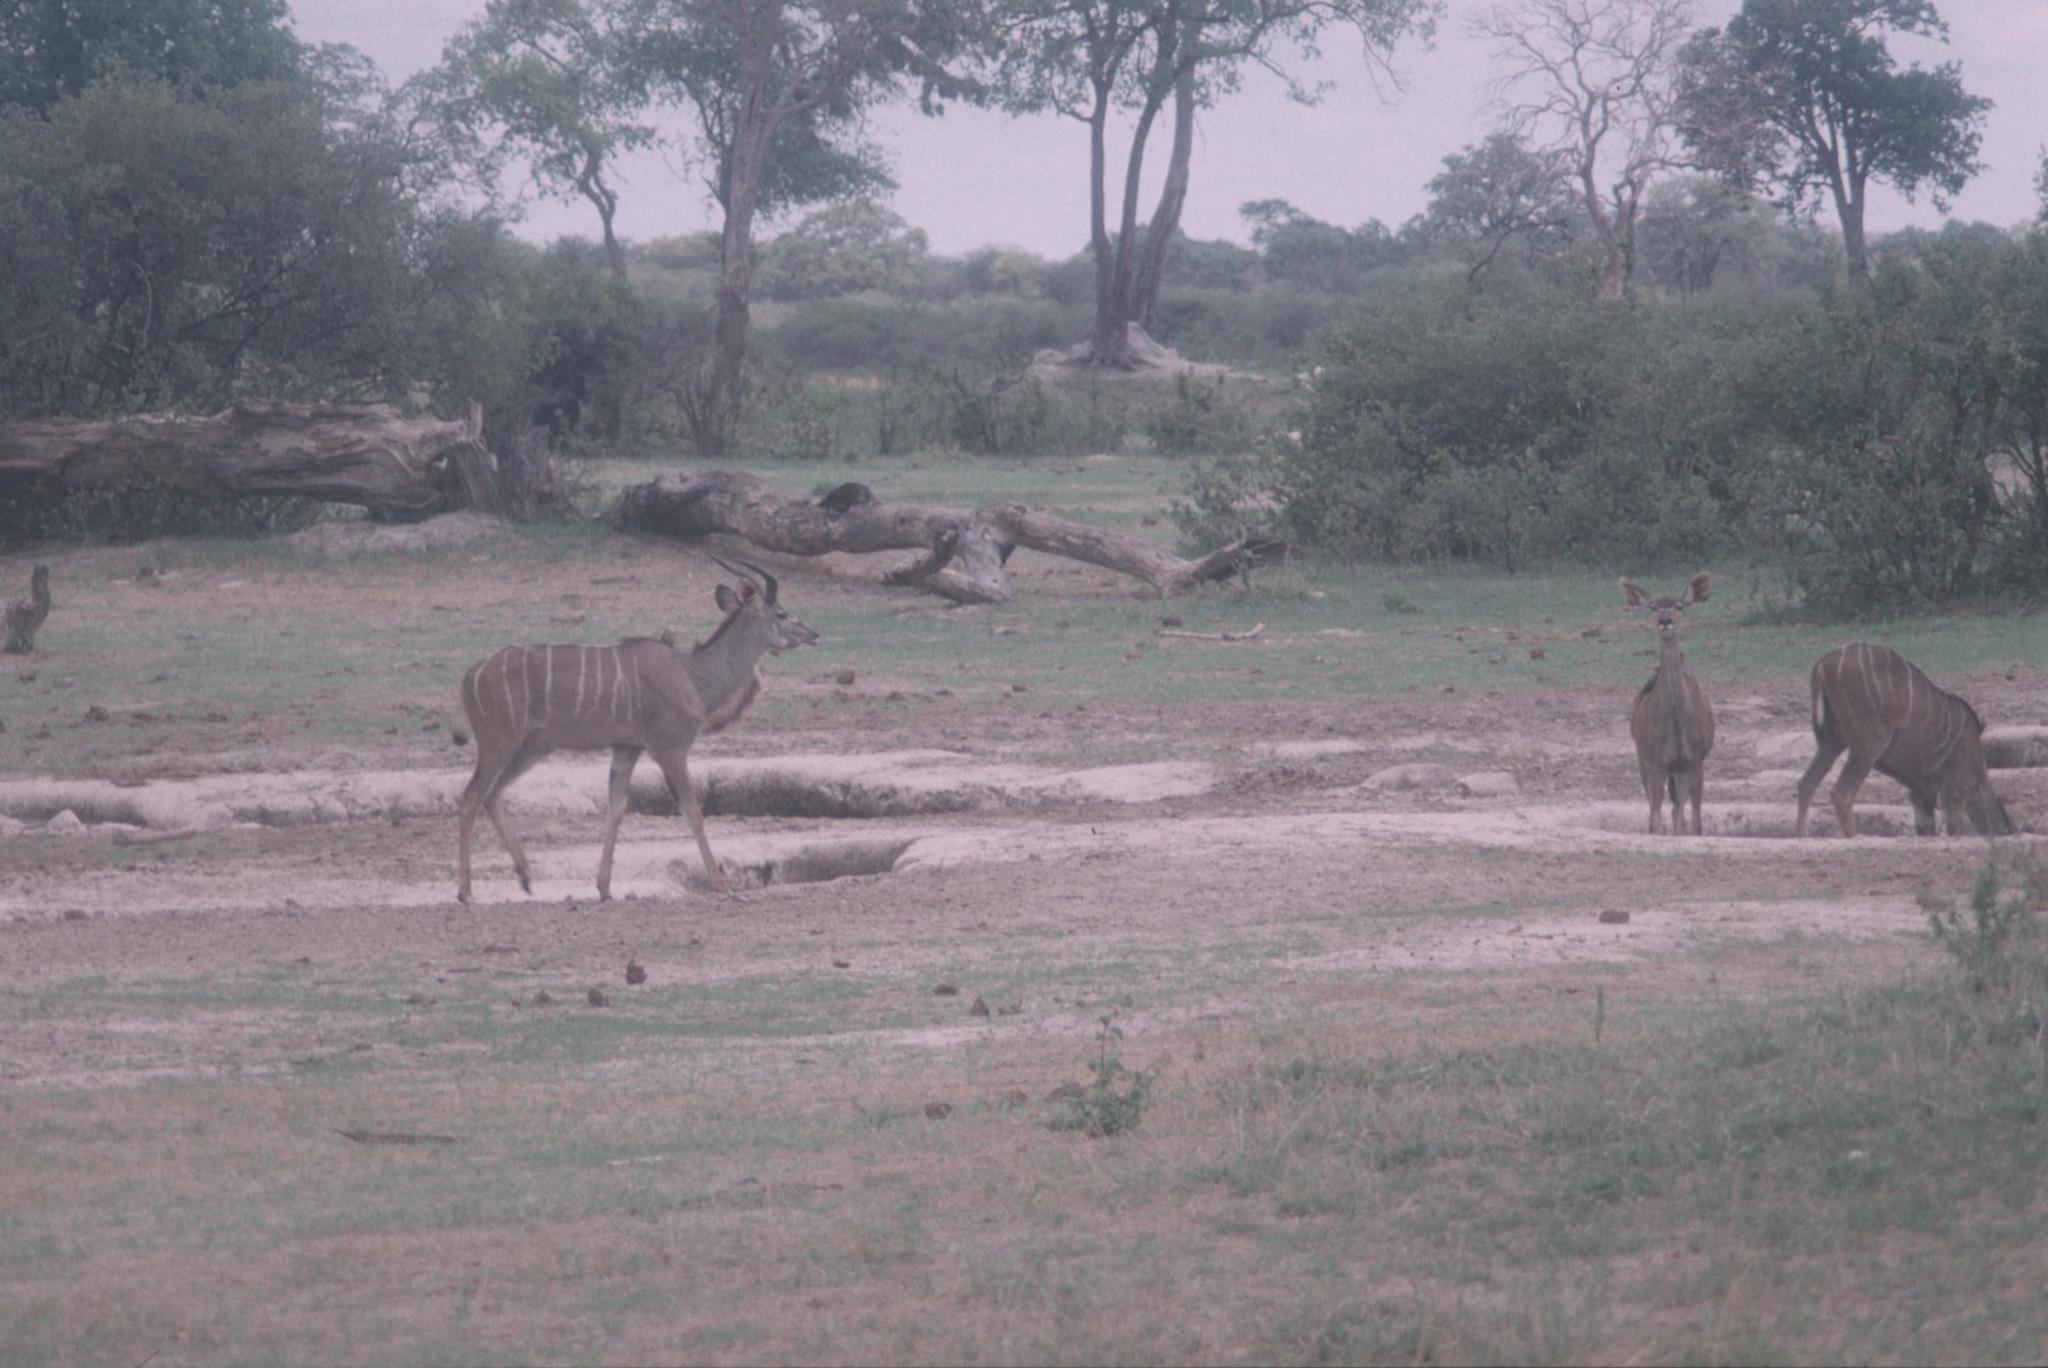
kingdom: Animalia
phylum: Chordata
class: Mammalia
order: Artiodactyla
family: Bovidae
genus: Tragelaphus
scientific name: Tragelaphus strepsiceros
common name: Greater kudu
